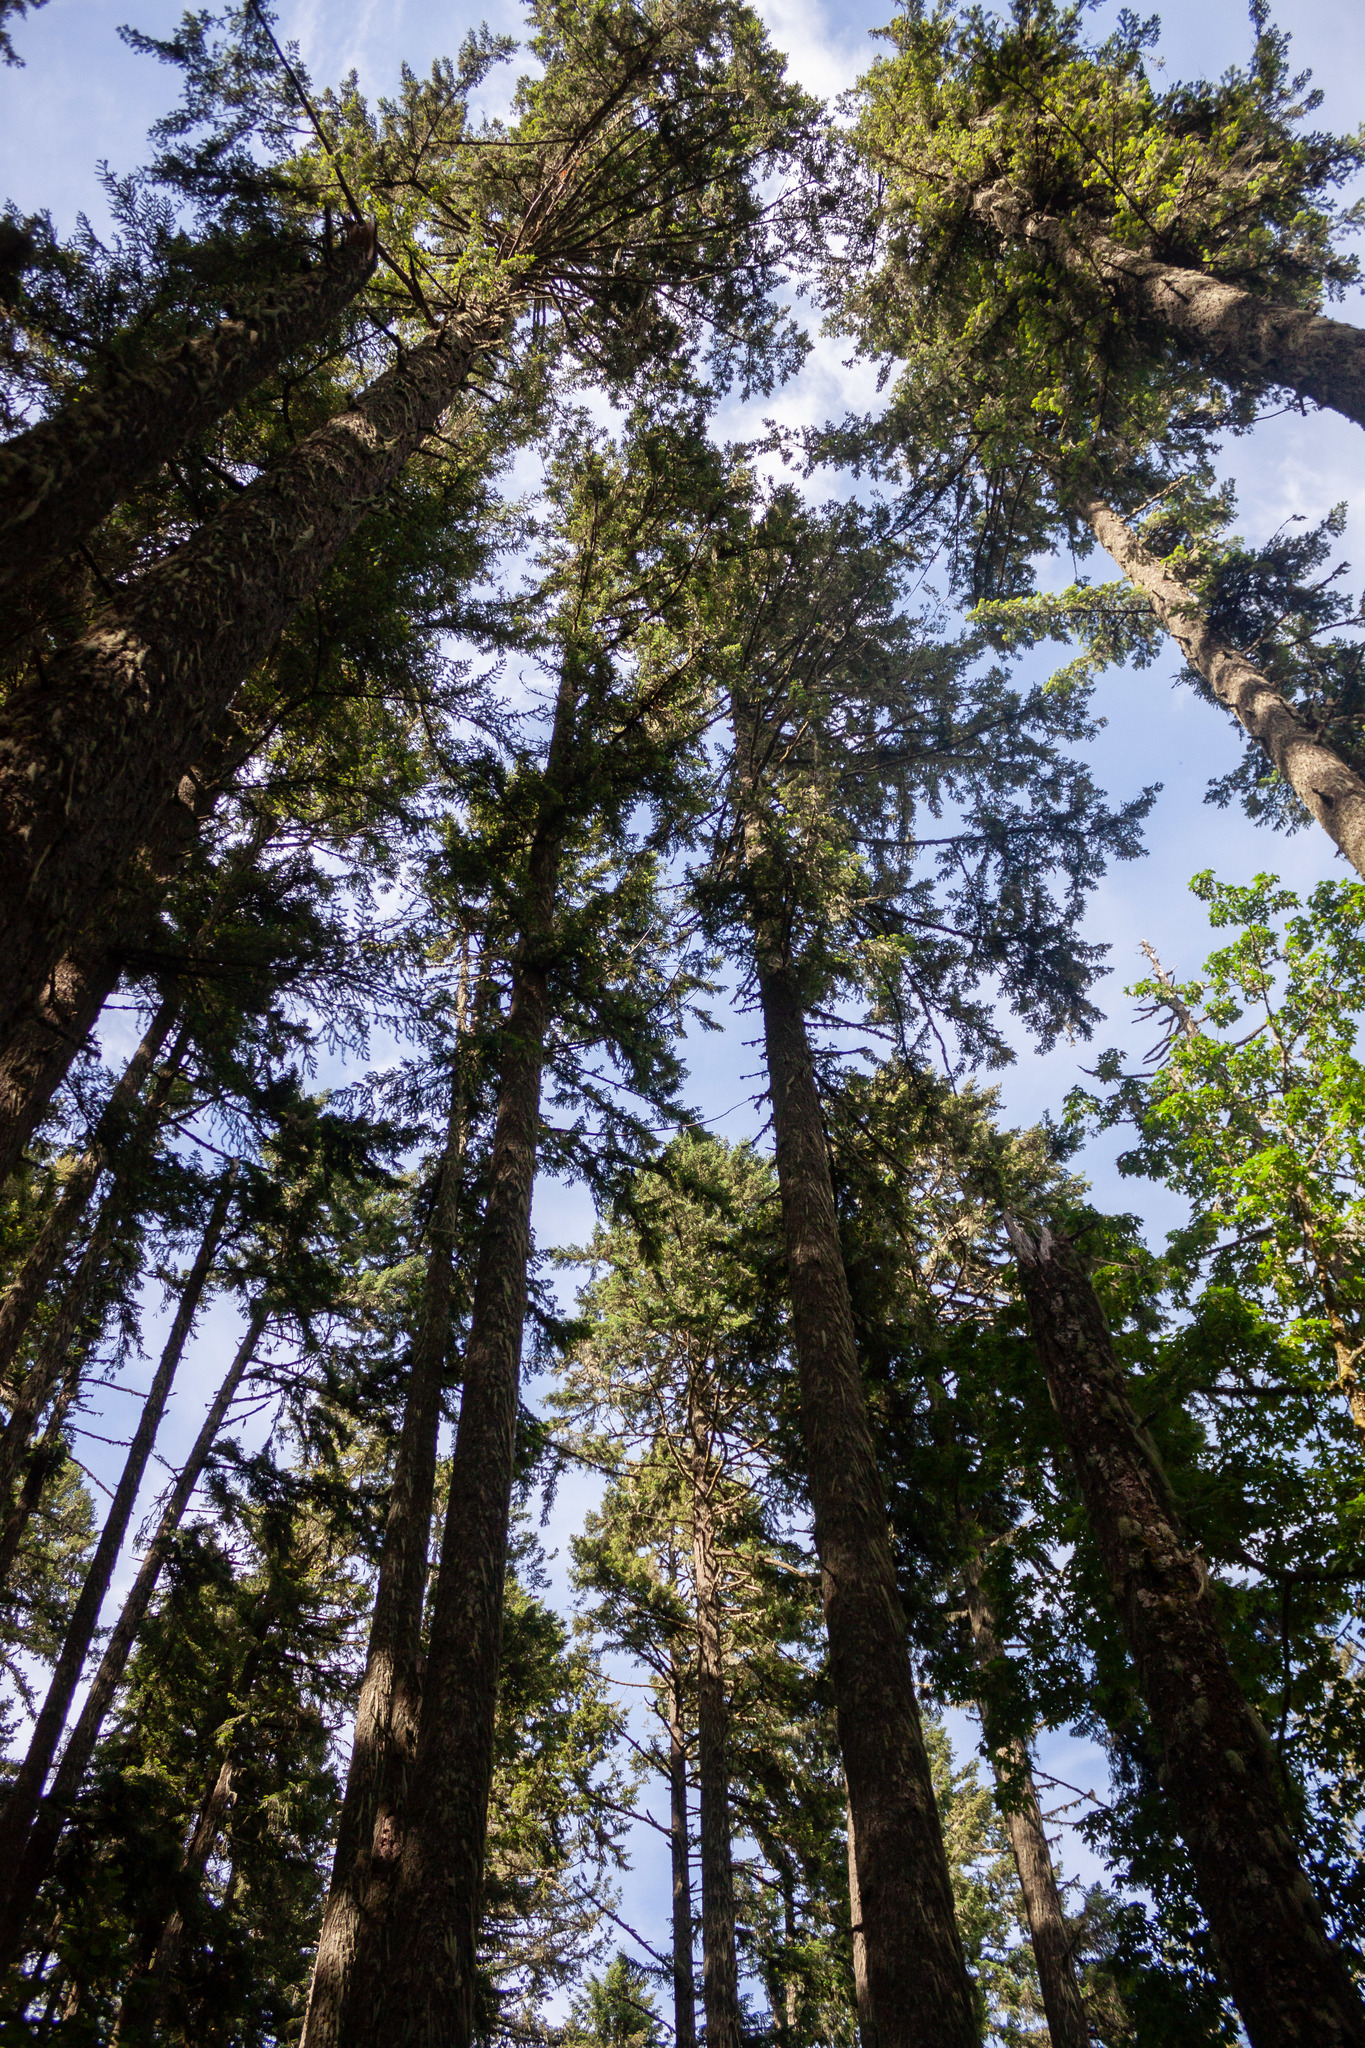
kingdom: Plantae
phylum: Tracheophyta
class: Pinopsida
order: Pinales
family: Pinaceae
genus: Pseudotsuga
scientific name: Pseudotsuga menziesii
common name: Douglas fir
